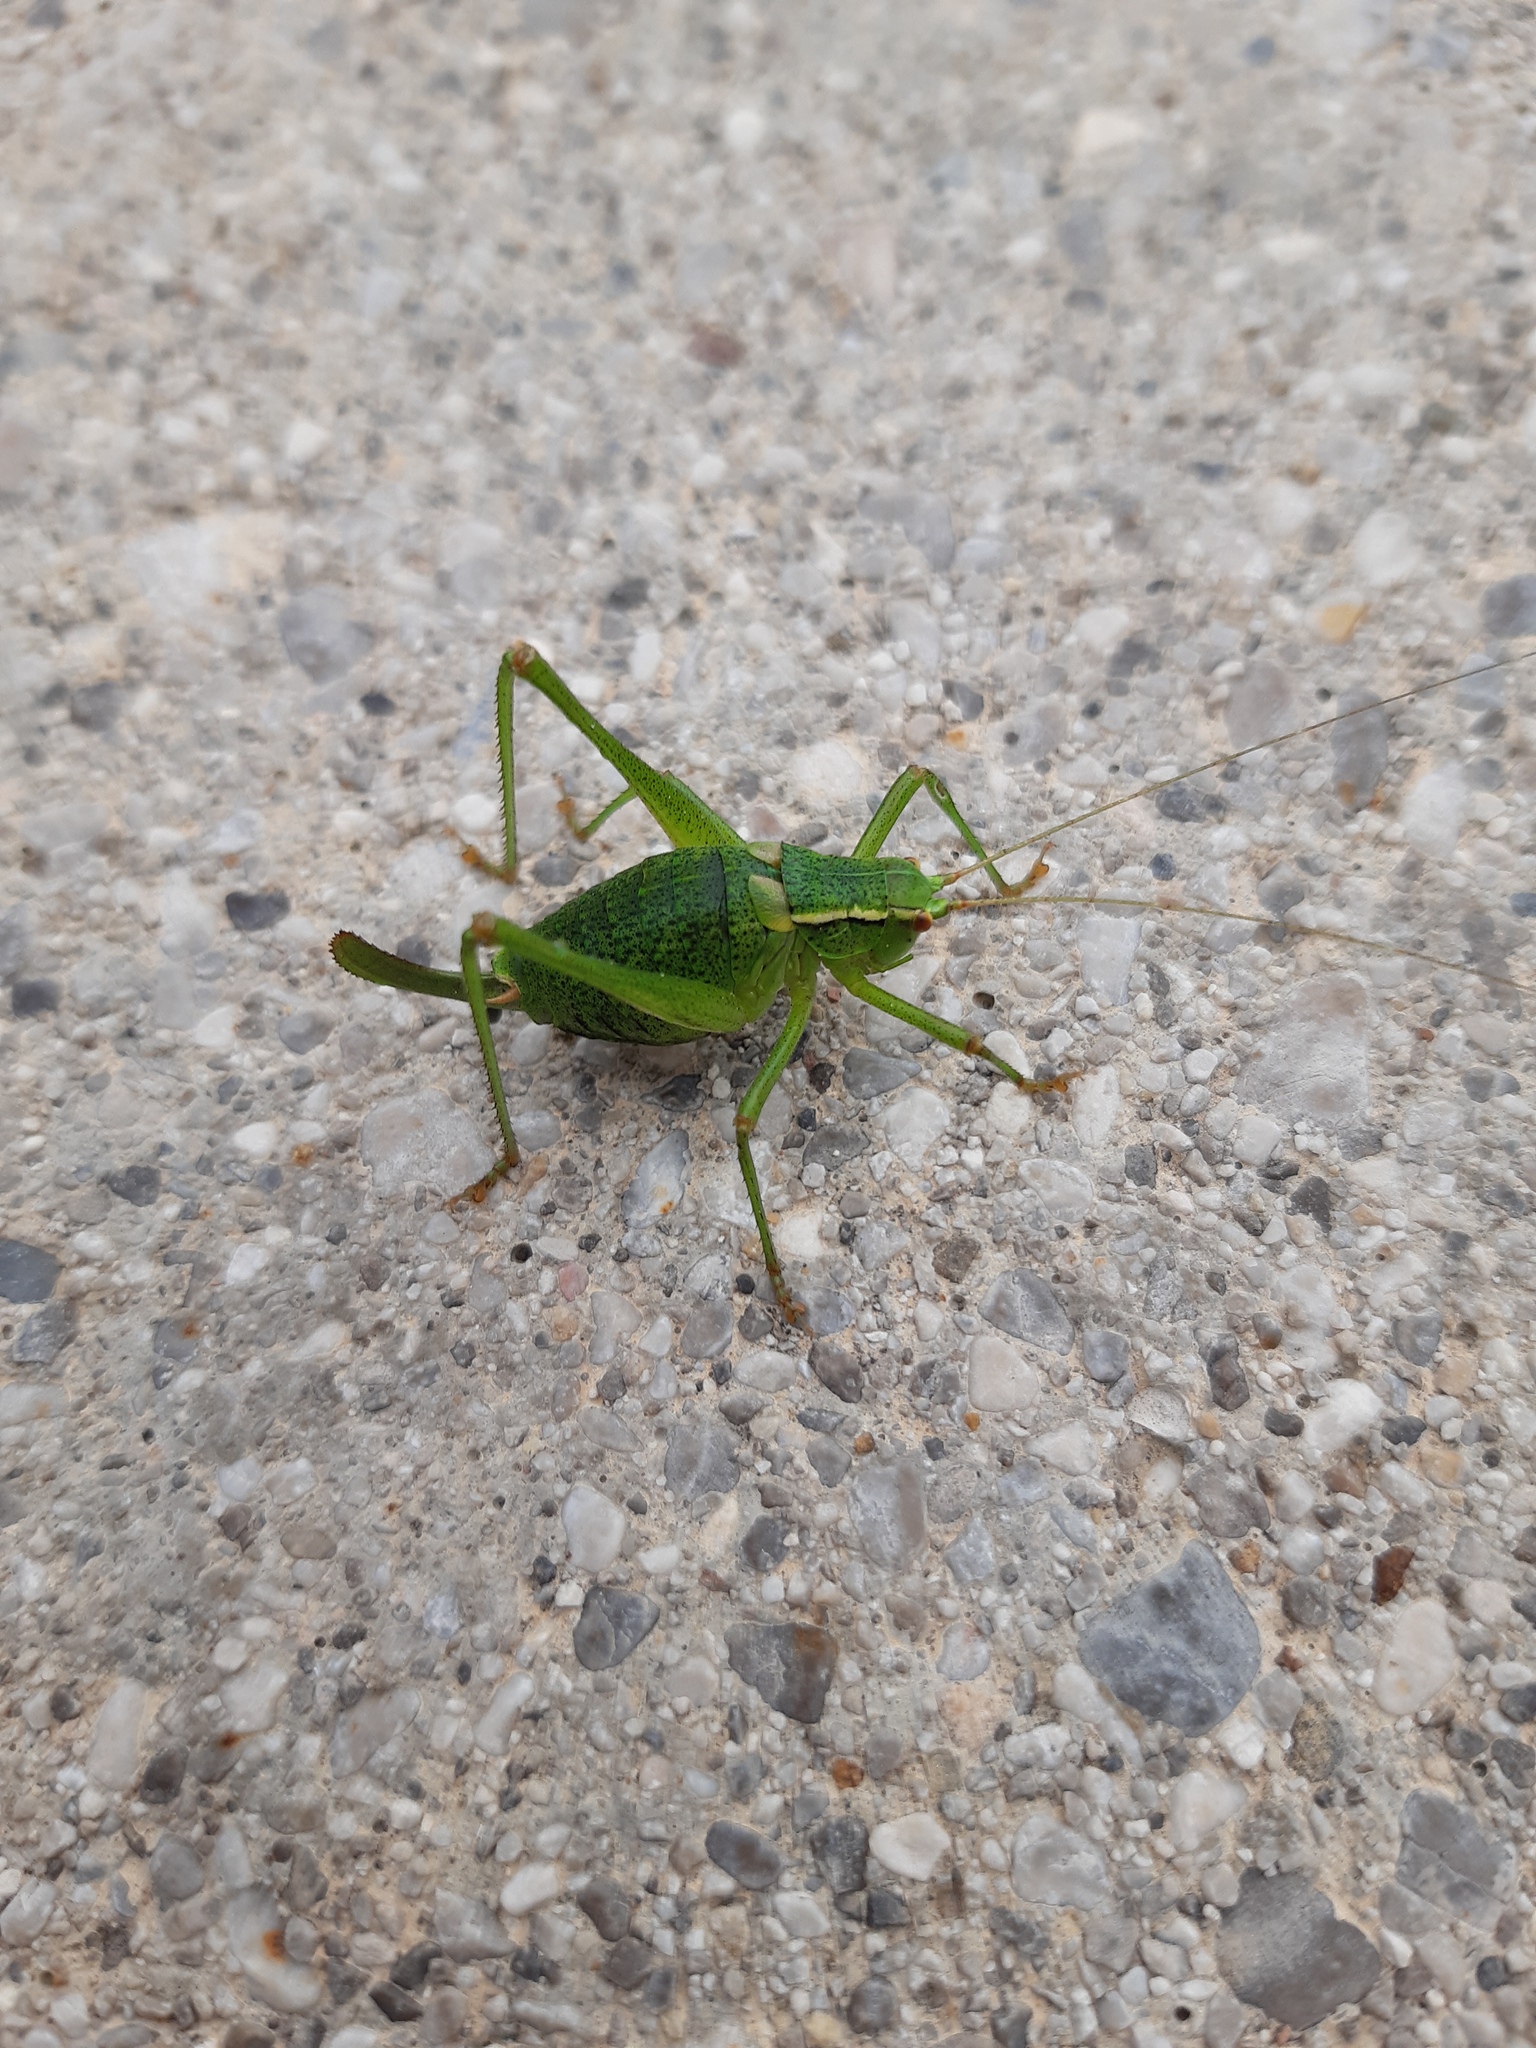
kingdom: Animalia
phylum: Arthropoda
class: Insecta
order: Orthoptera
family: Tettigoniidae
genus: Barbitistes
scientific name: Barbitistes serricauda
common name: Saw-tailed bush-cricket
